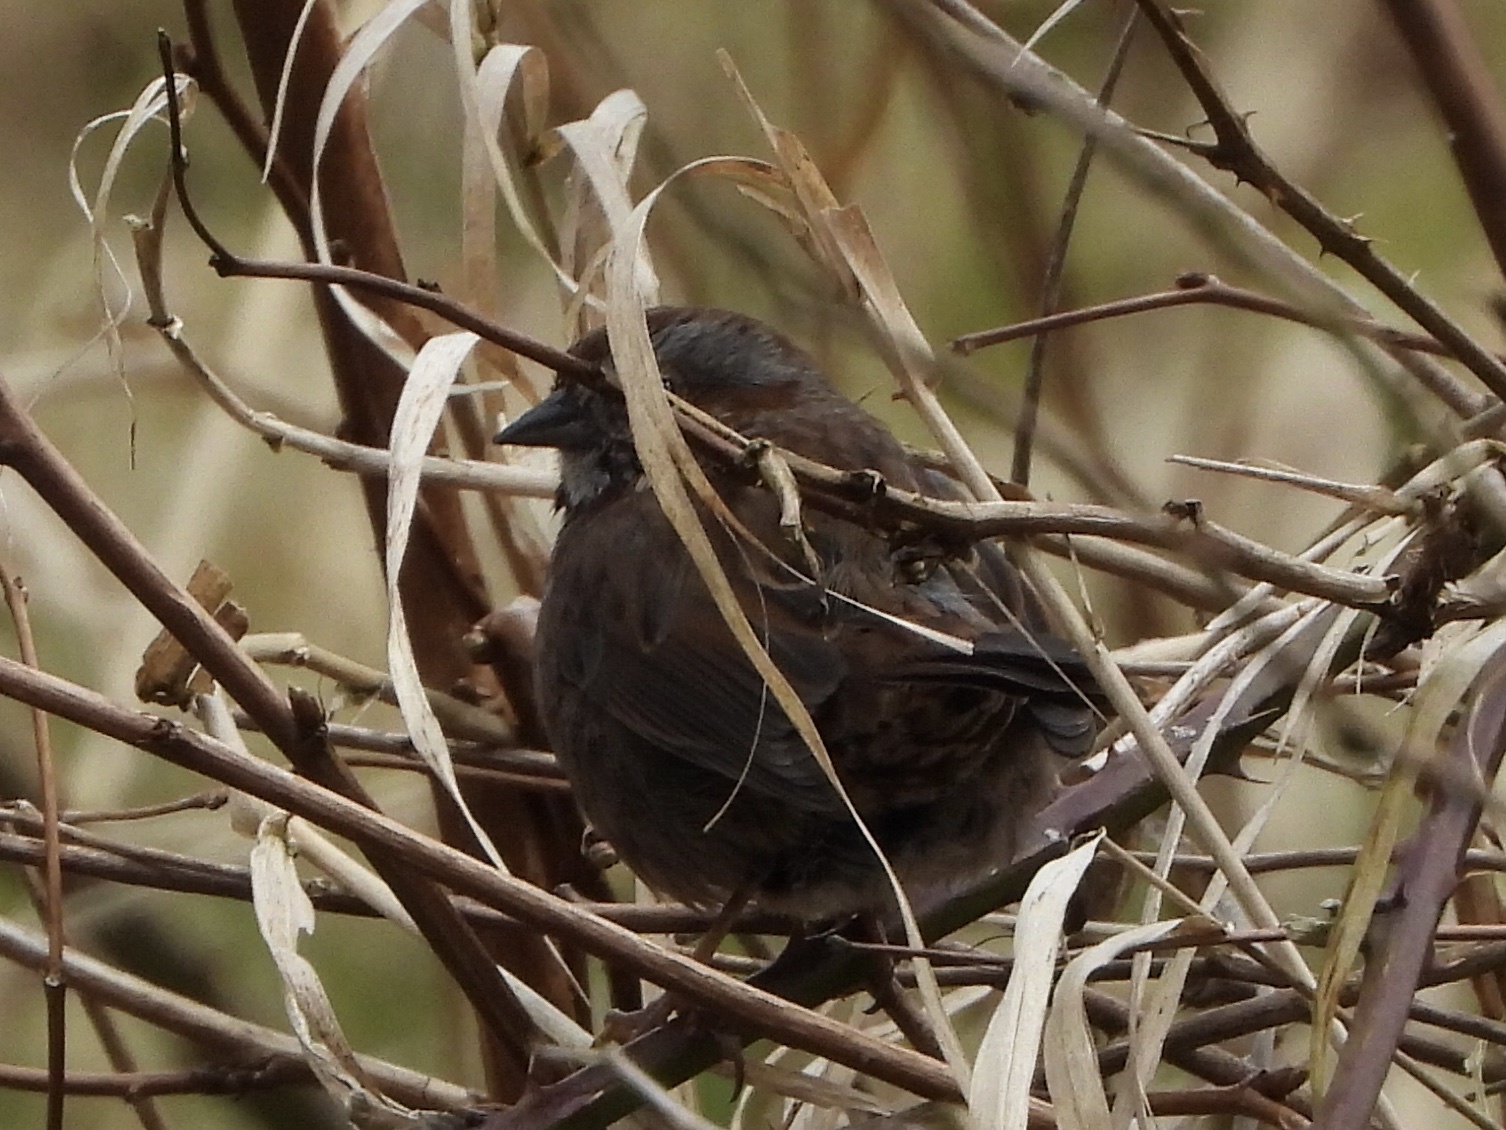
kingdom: Animalia
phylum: Chordata
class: Aves
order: Passeriformes
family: Passerellidae
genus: Melospiza
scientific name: Melospiza melodia
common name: Song sparrow
